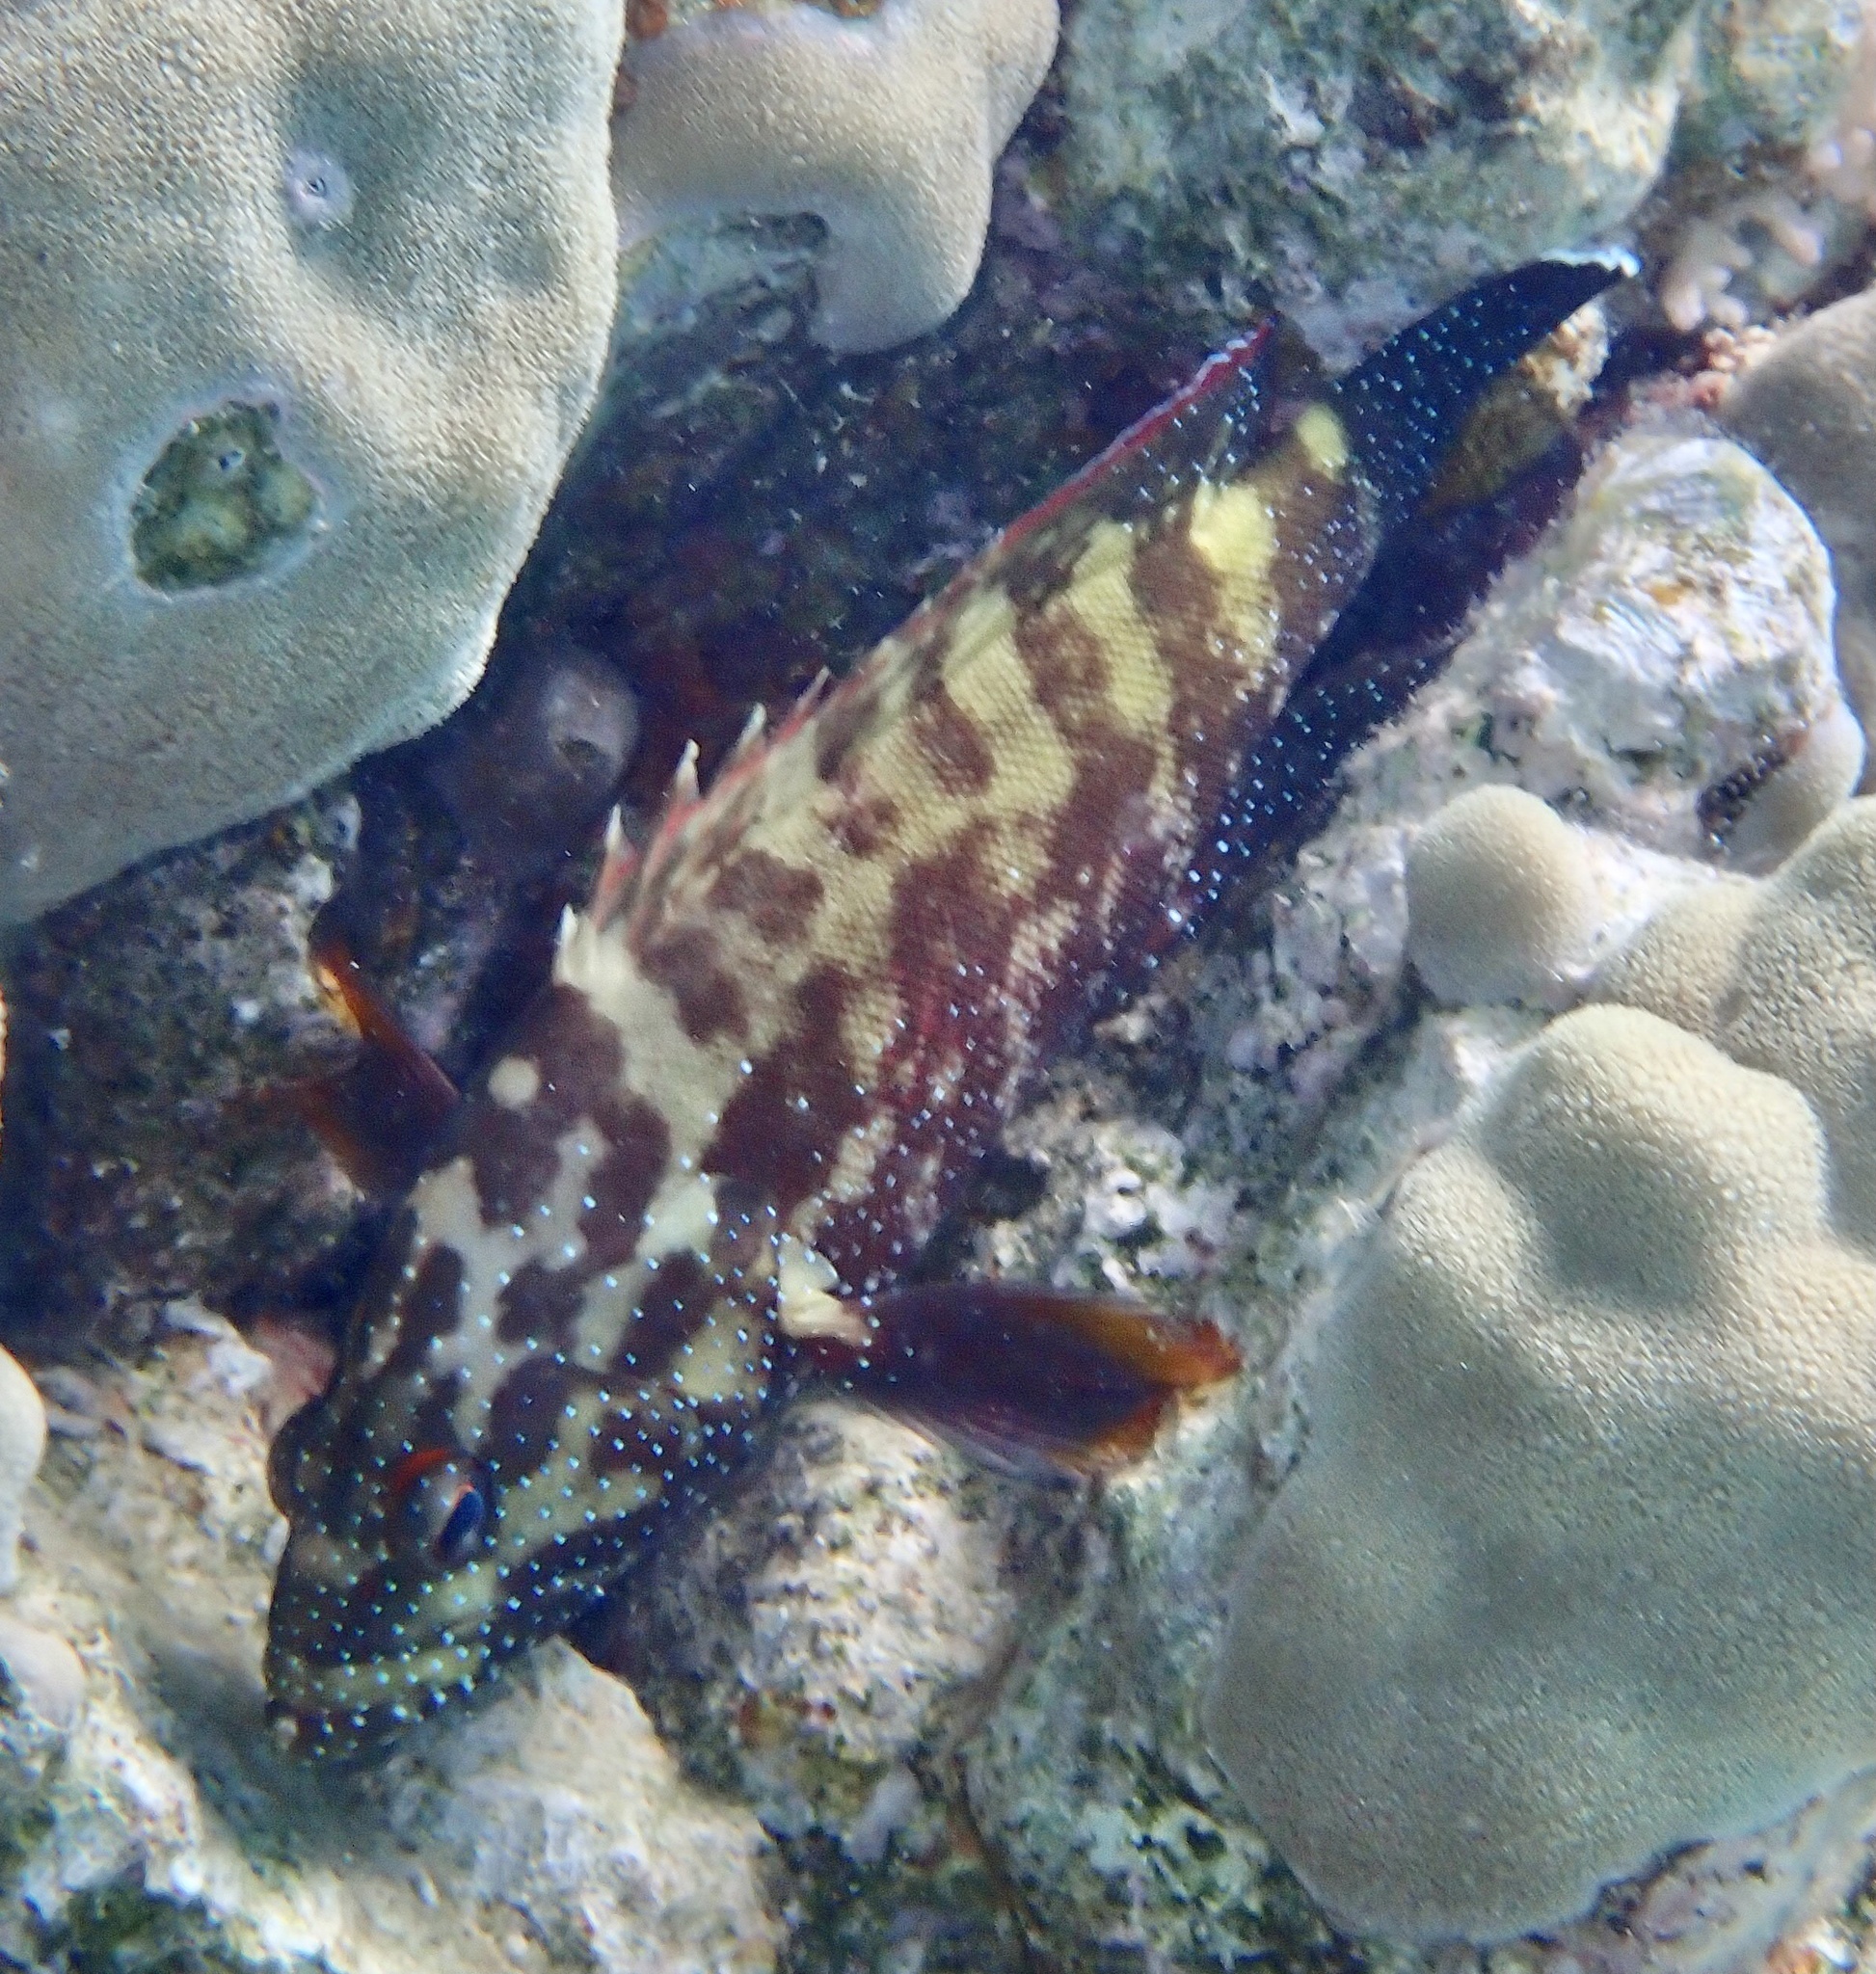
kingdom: Animalia
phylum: Chordata
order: Perciformes
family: Serranidae
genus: Cephalopholis
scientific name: Cephalopholis hemistiktos
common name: Halfspotted hind
